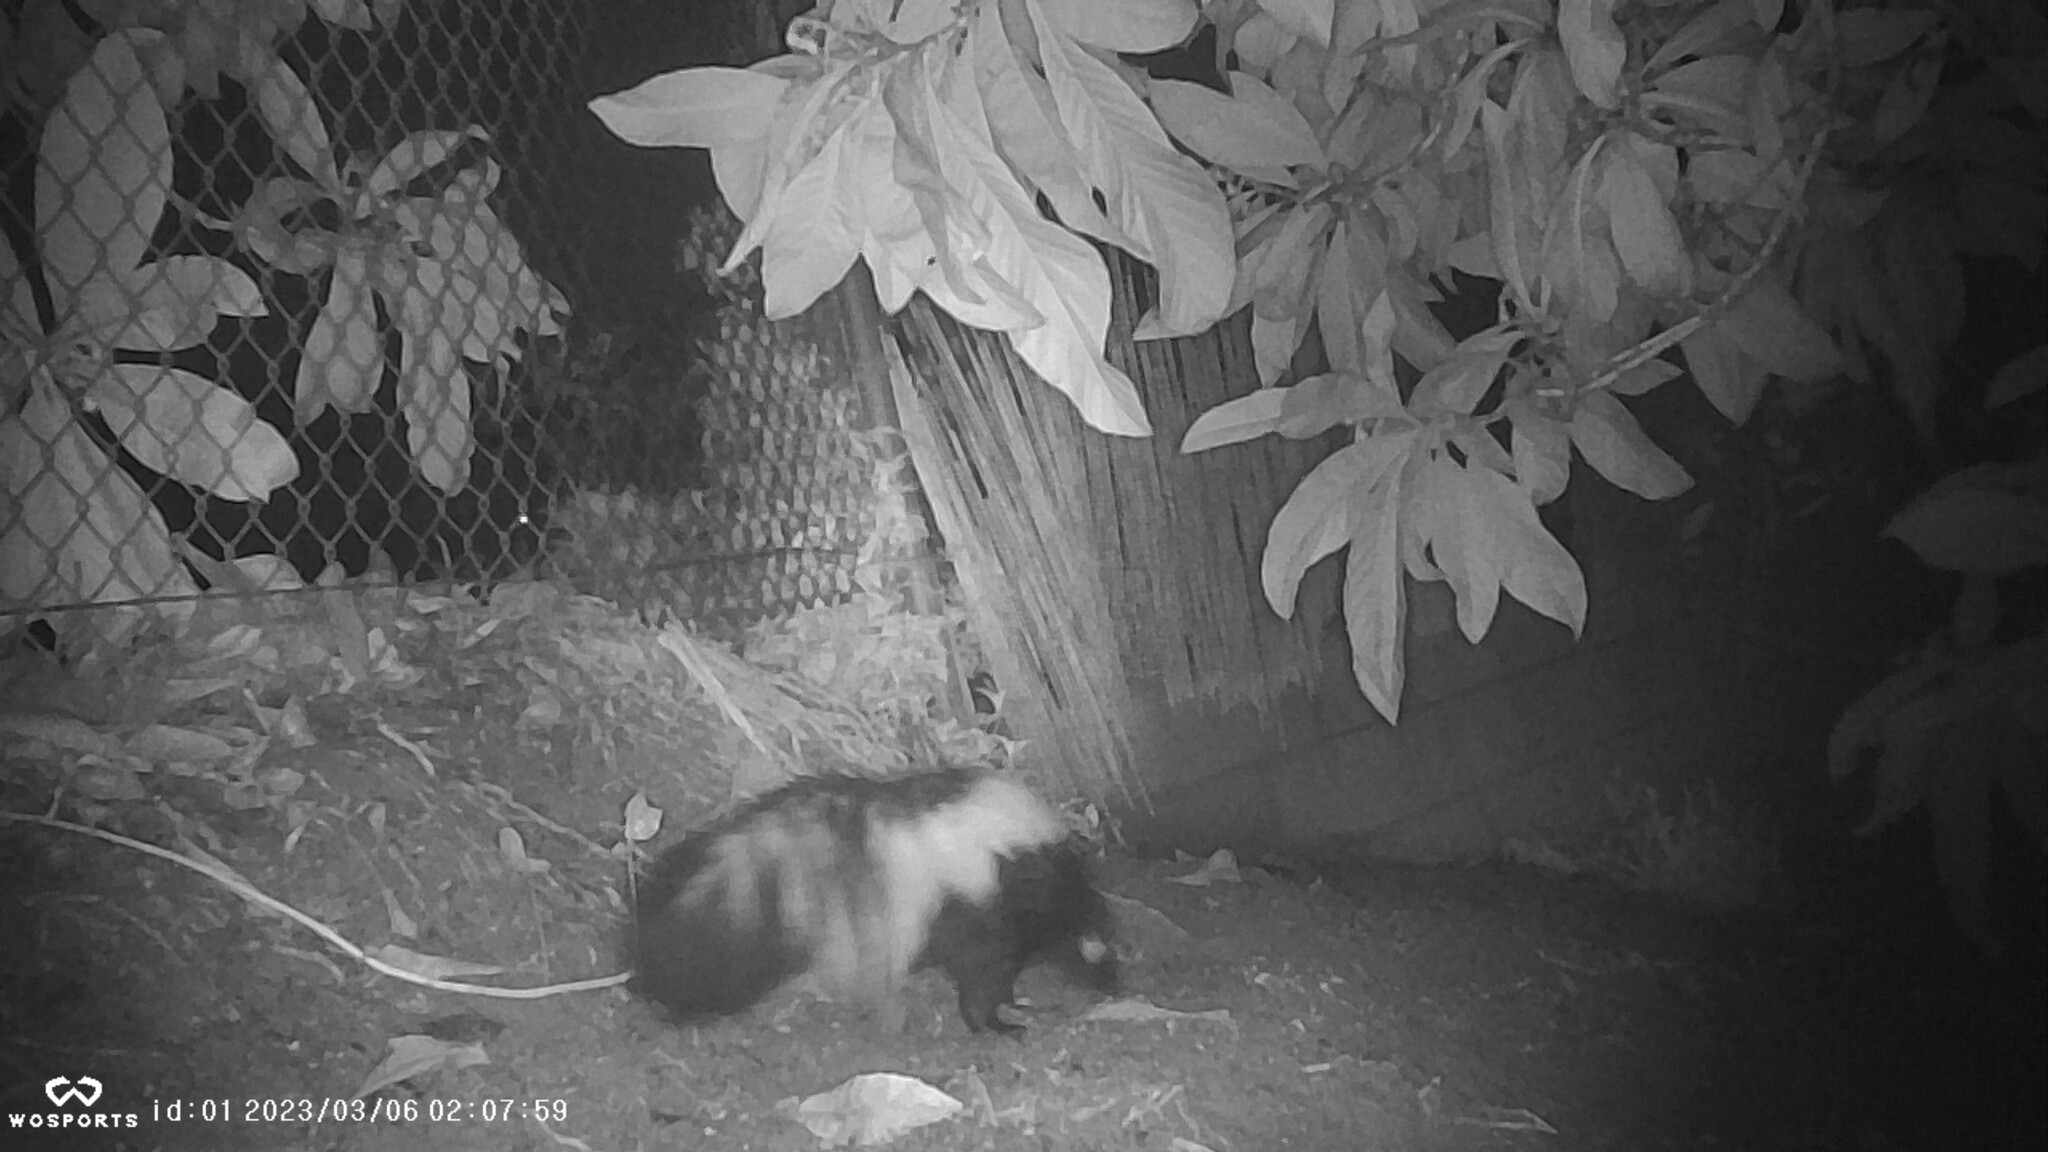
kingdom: Animalia
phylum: Chordata
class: Mammalia
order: Carnivora
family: Mephitidae
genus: Mephitis
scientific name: Mephitis mephitis
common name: Striped skunk
